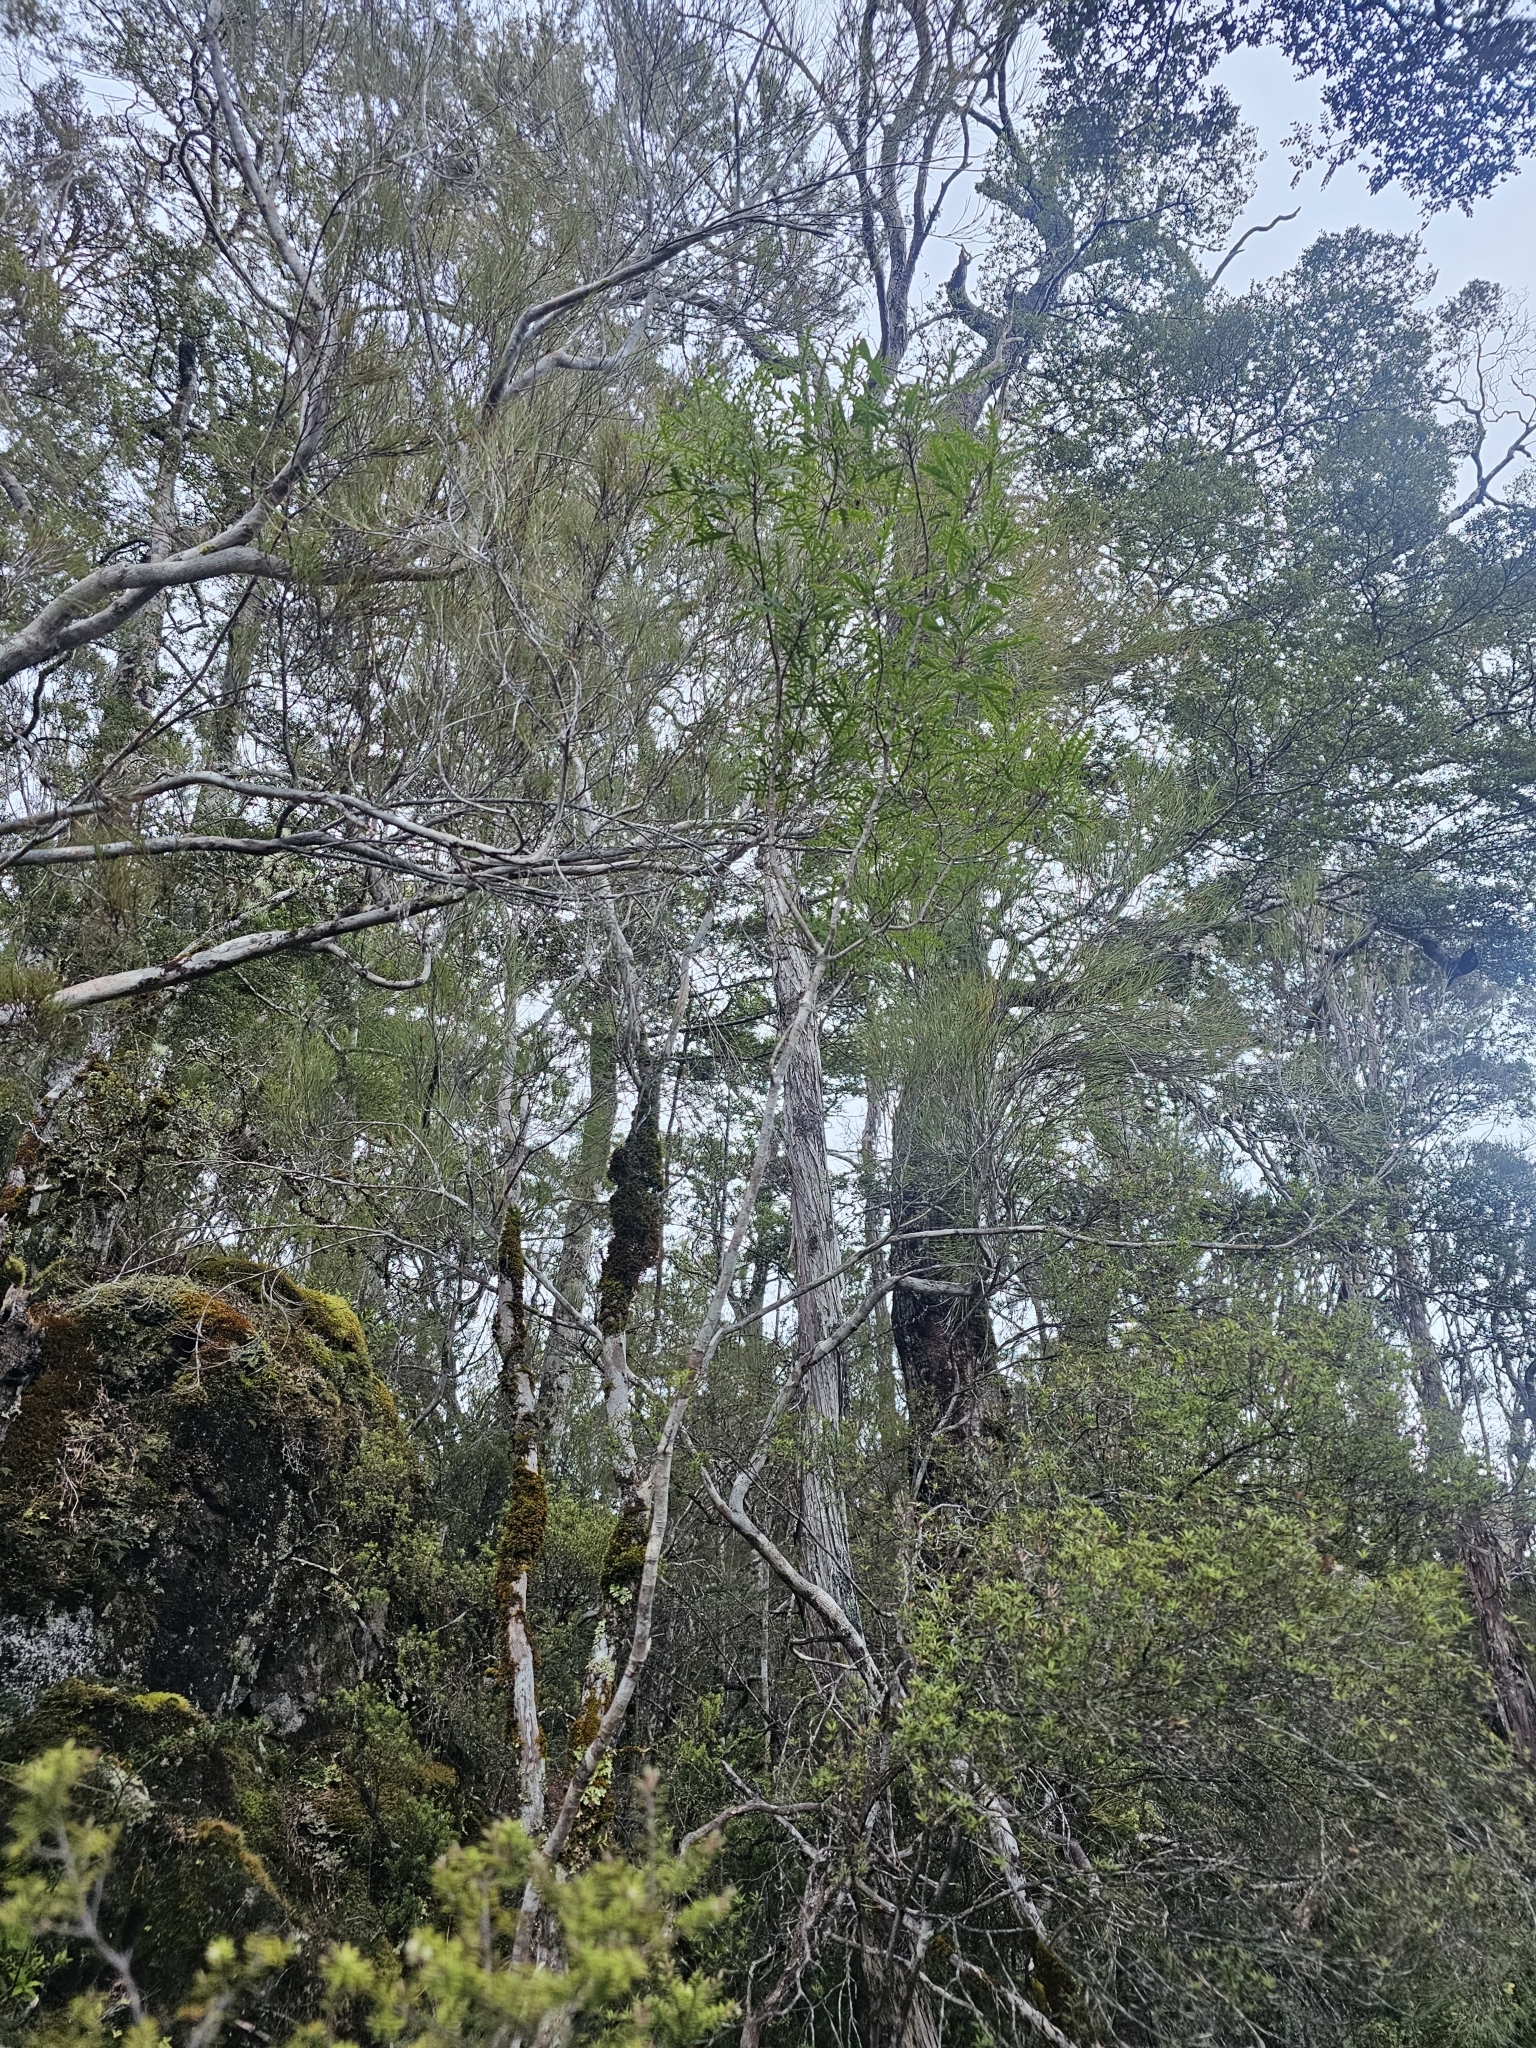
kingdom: Plantae
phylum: Tracheophyta
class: Magnoliopsida
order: Apiales
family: Araliaceae
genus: Raukaua
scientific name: Raukaua simplex
